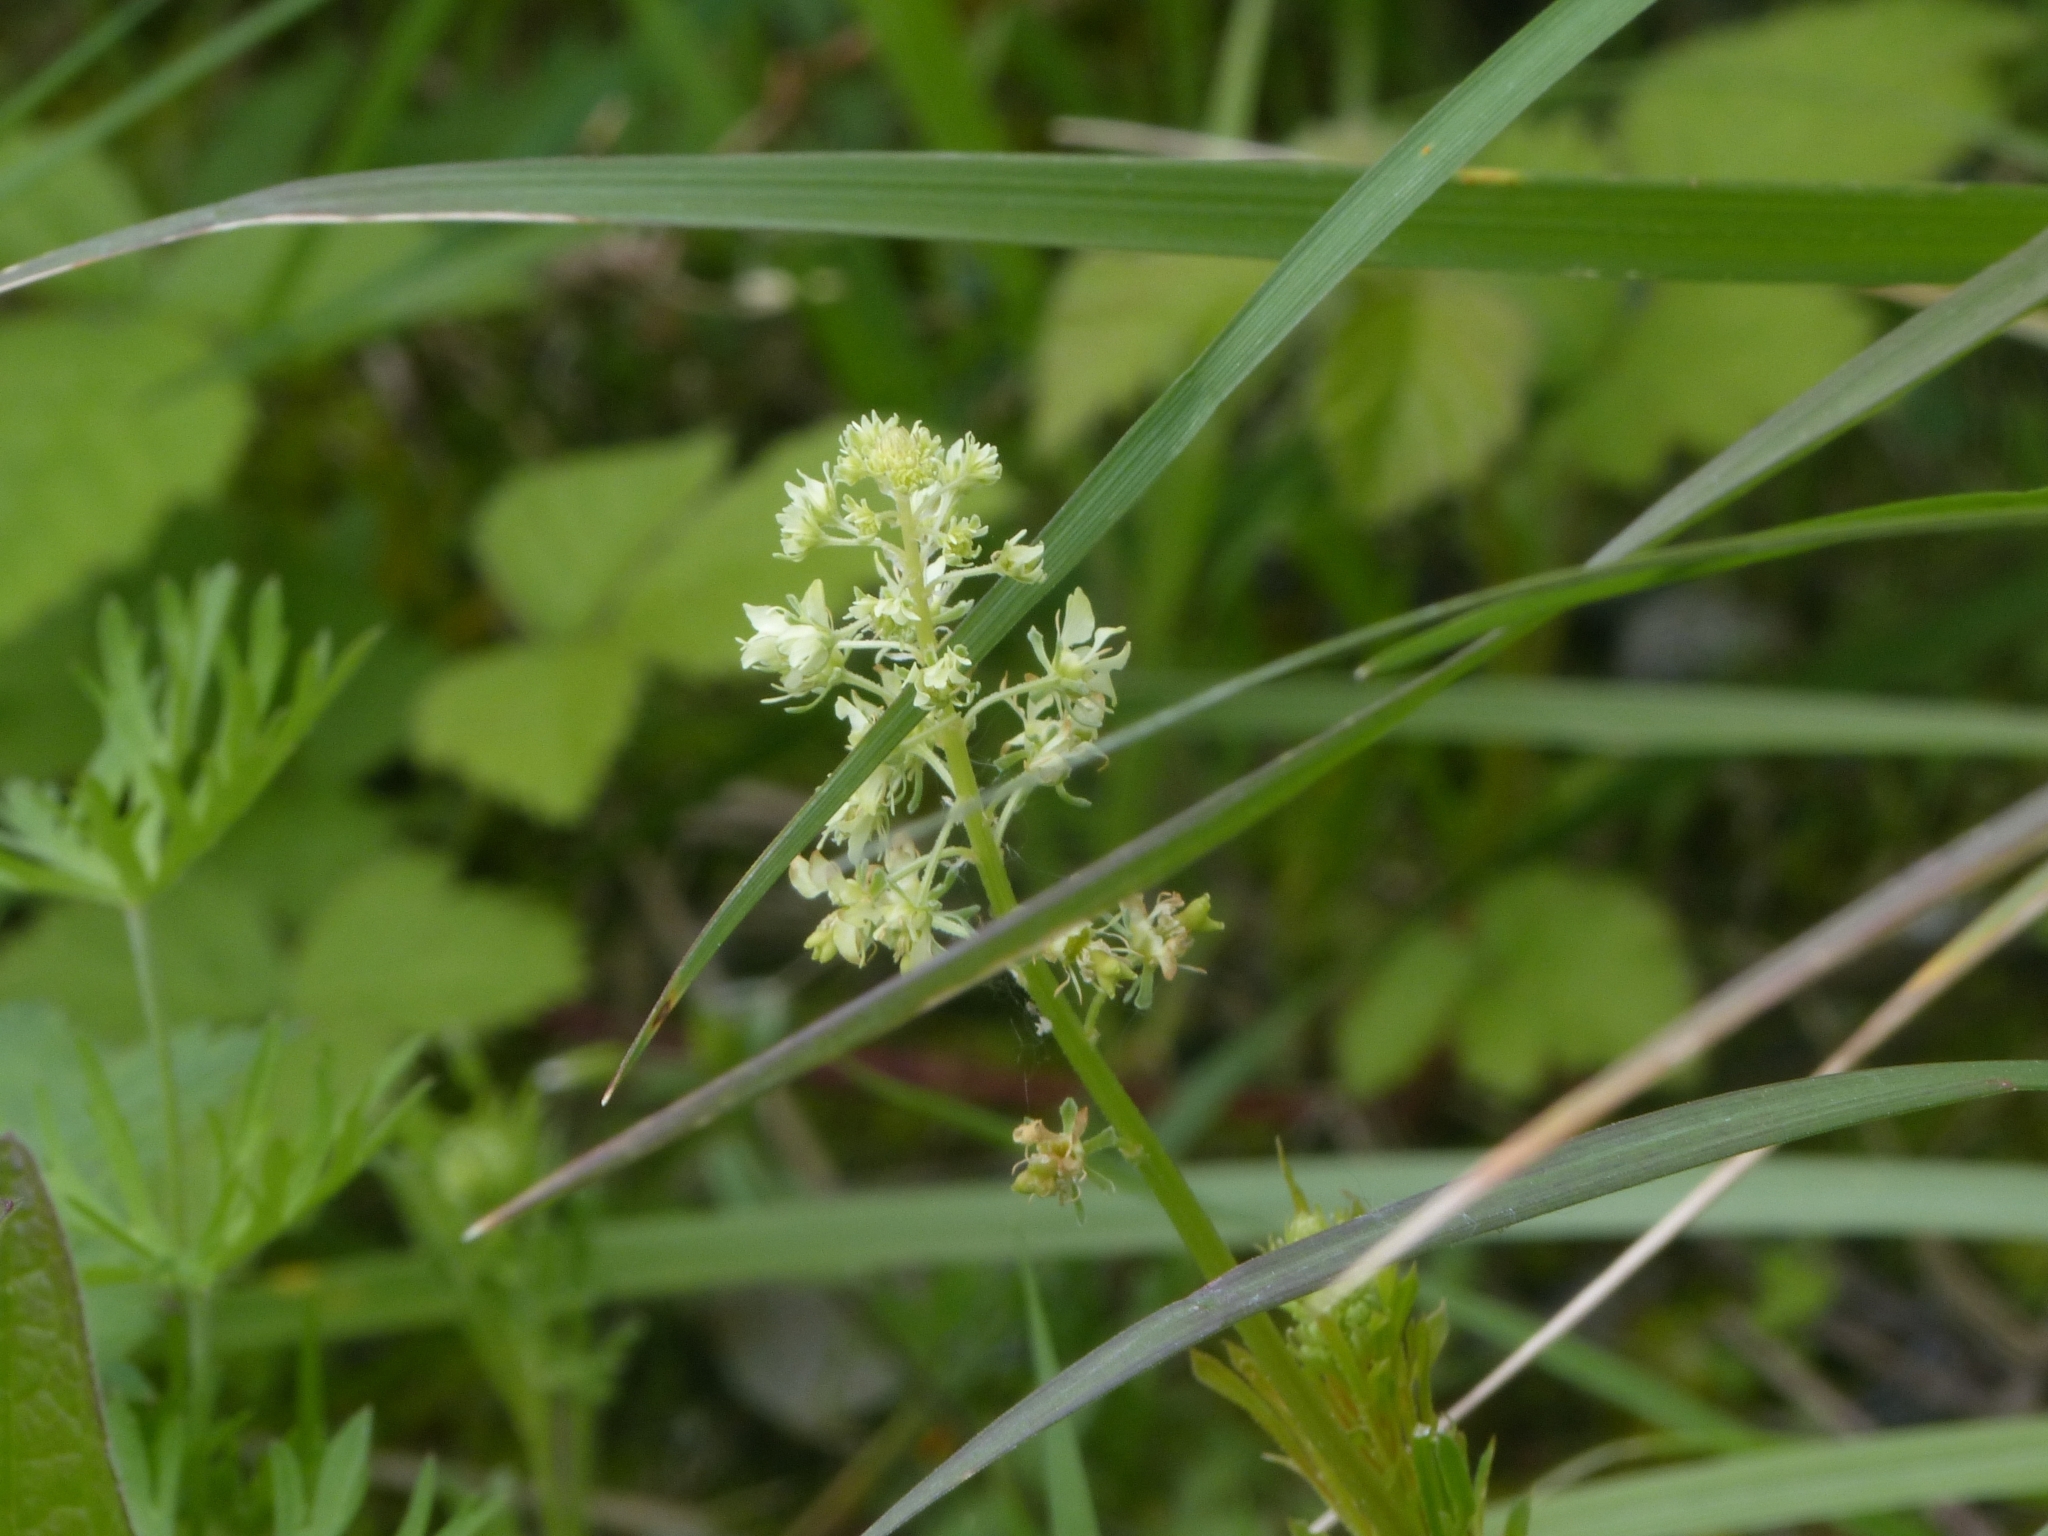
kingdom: Plantae
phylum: Tracheophyta
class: Magnoliopsida
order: Brassicales
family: Resedaceae
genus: Reseda
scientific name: Reseda lutea
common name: Wild mignonette
